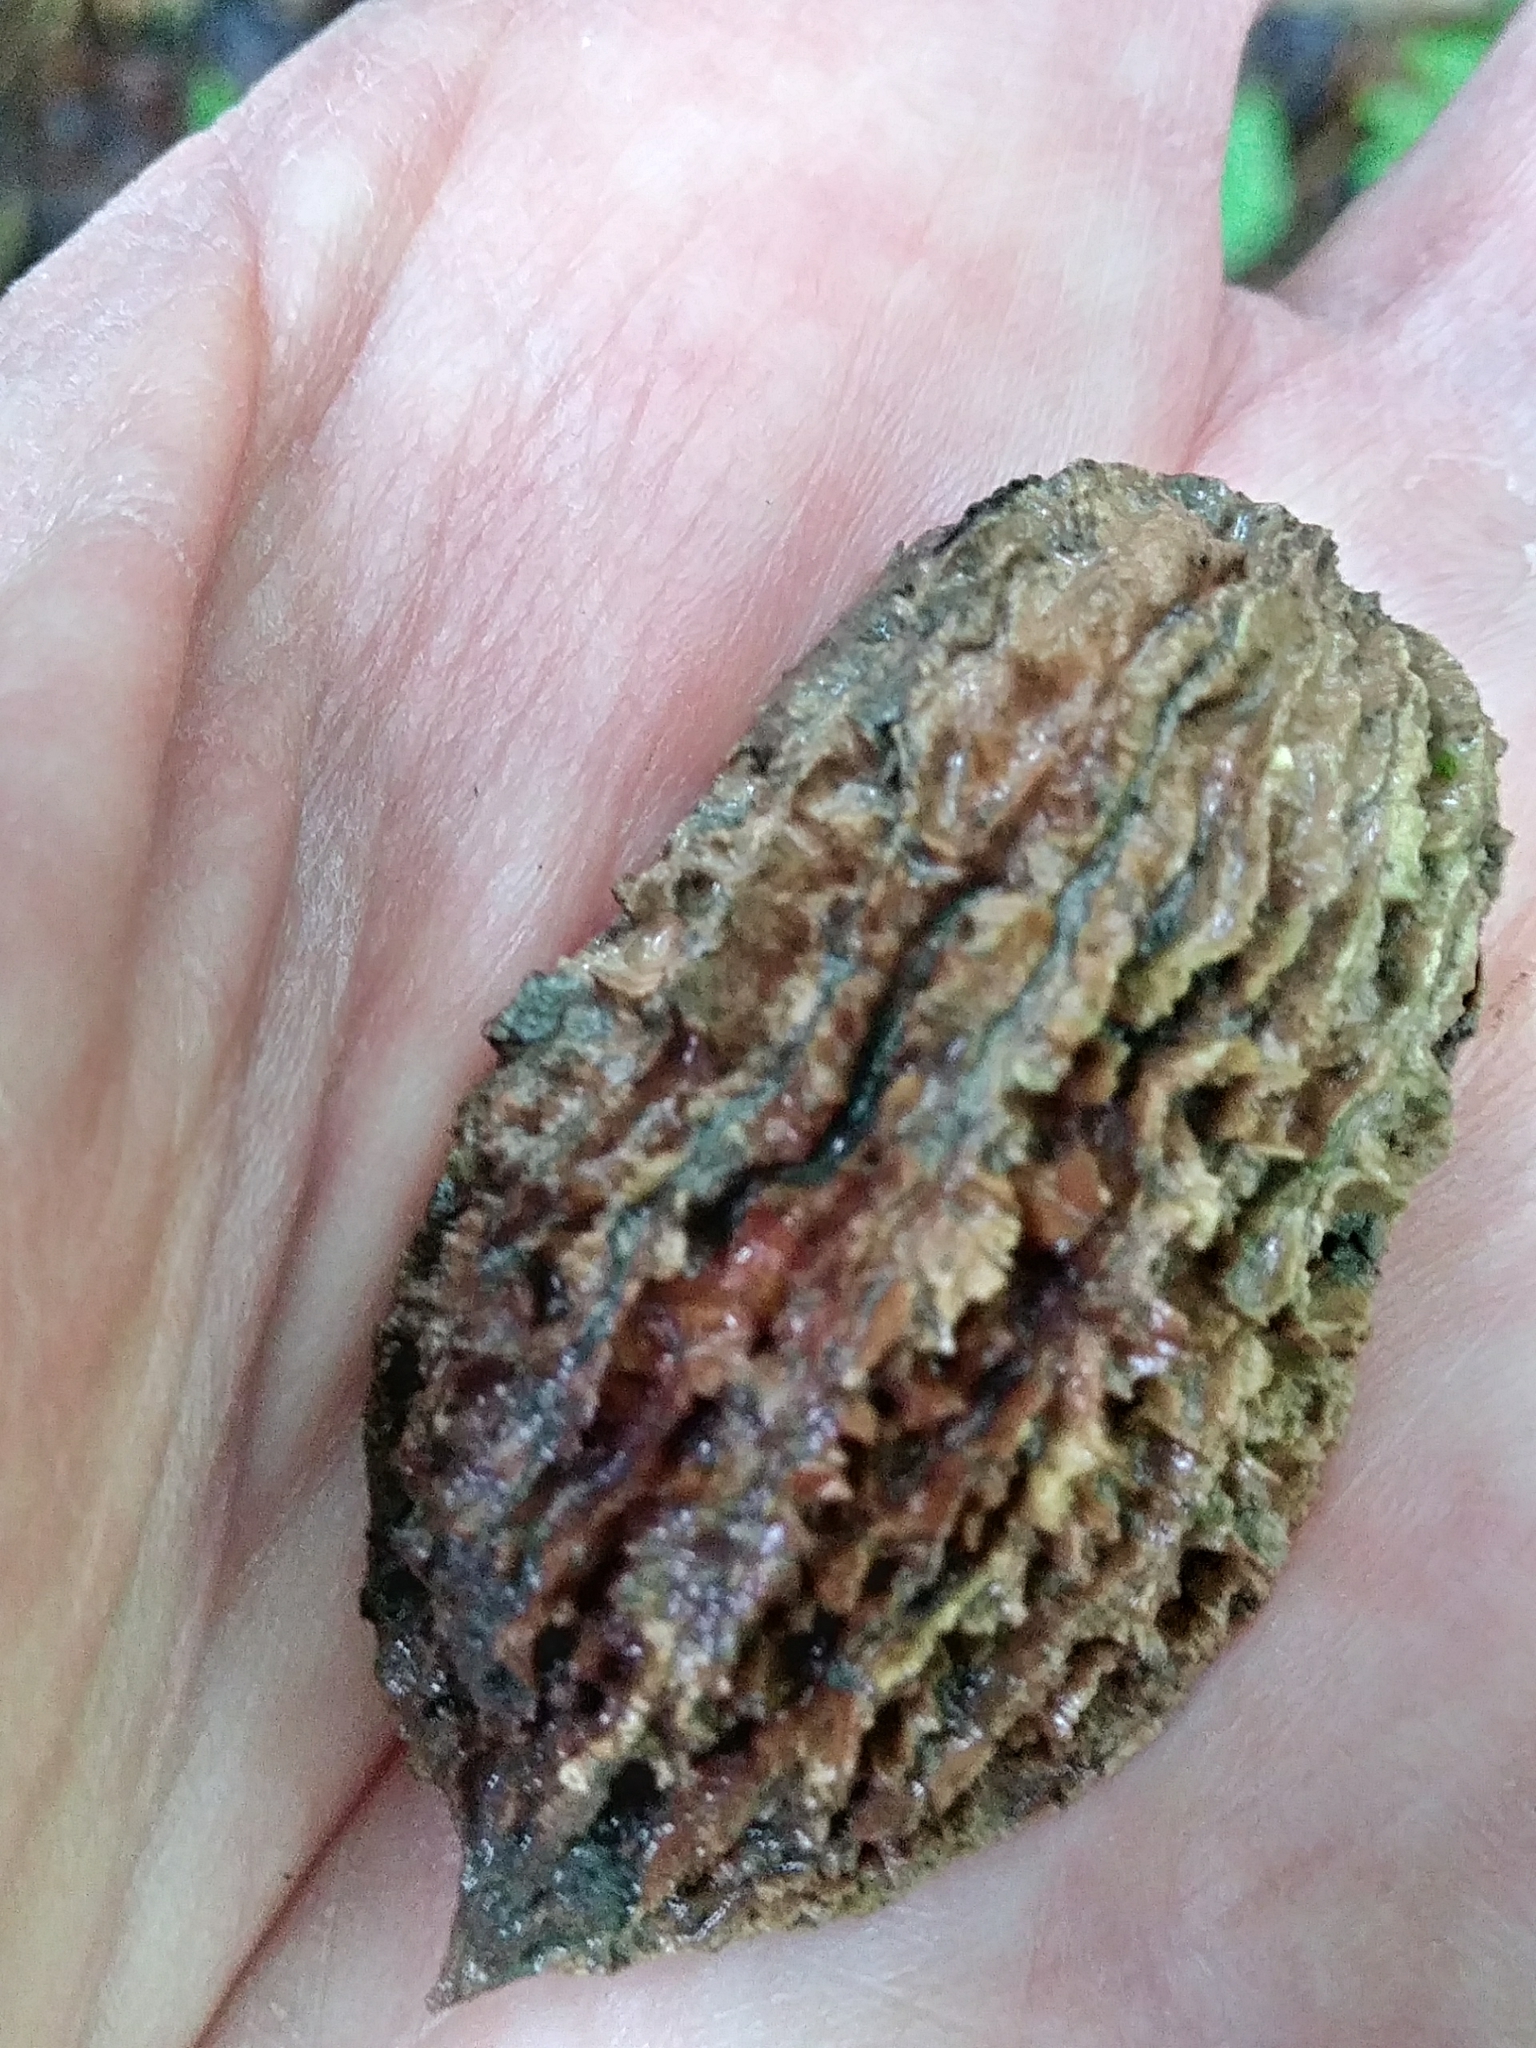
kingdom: Plantae
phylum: Tracheophyta
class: Magnoliopsida
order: Fagales
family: Juglandaceae
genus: Juglans
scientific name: Juglans cinerea
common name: Butternut
